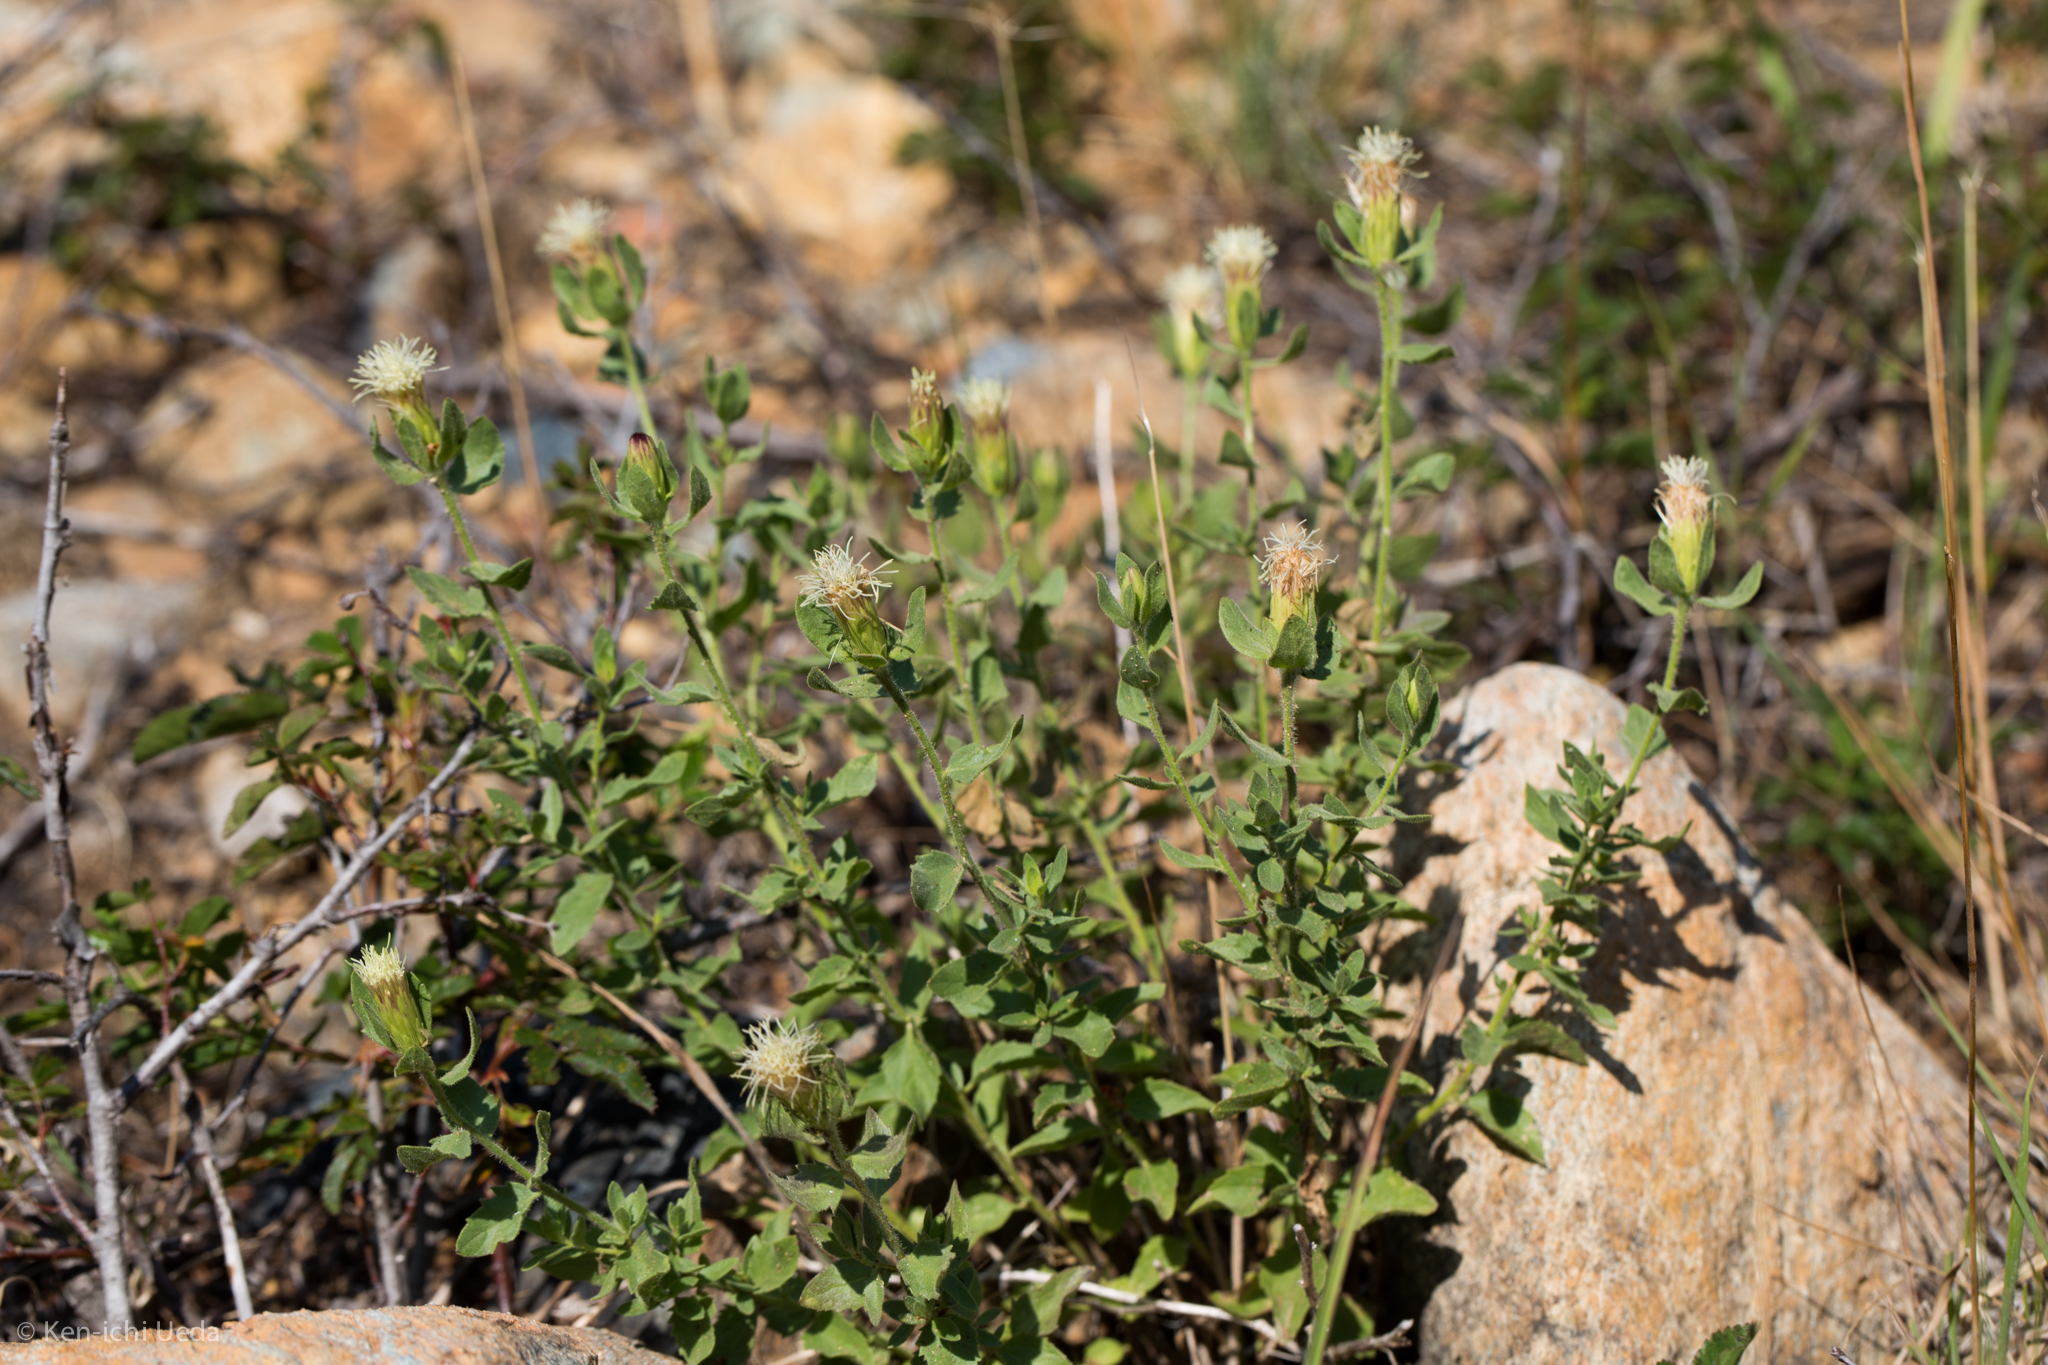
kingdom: Plantae
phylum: Tracheophyta
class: Magnoliopsida
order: Asterales
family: Asteraceae
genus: Brickellia
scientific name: Brickellia greenei
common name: Greene's brickellbush
